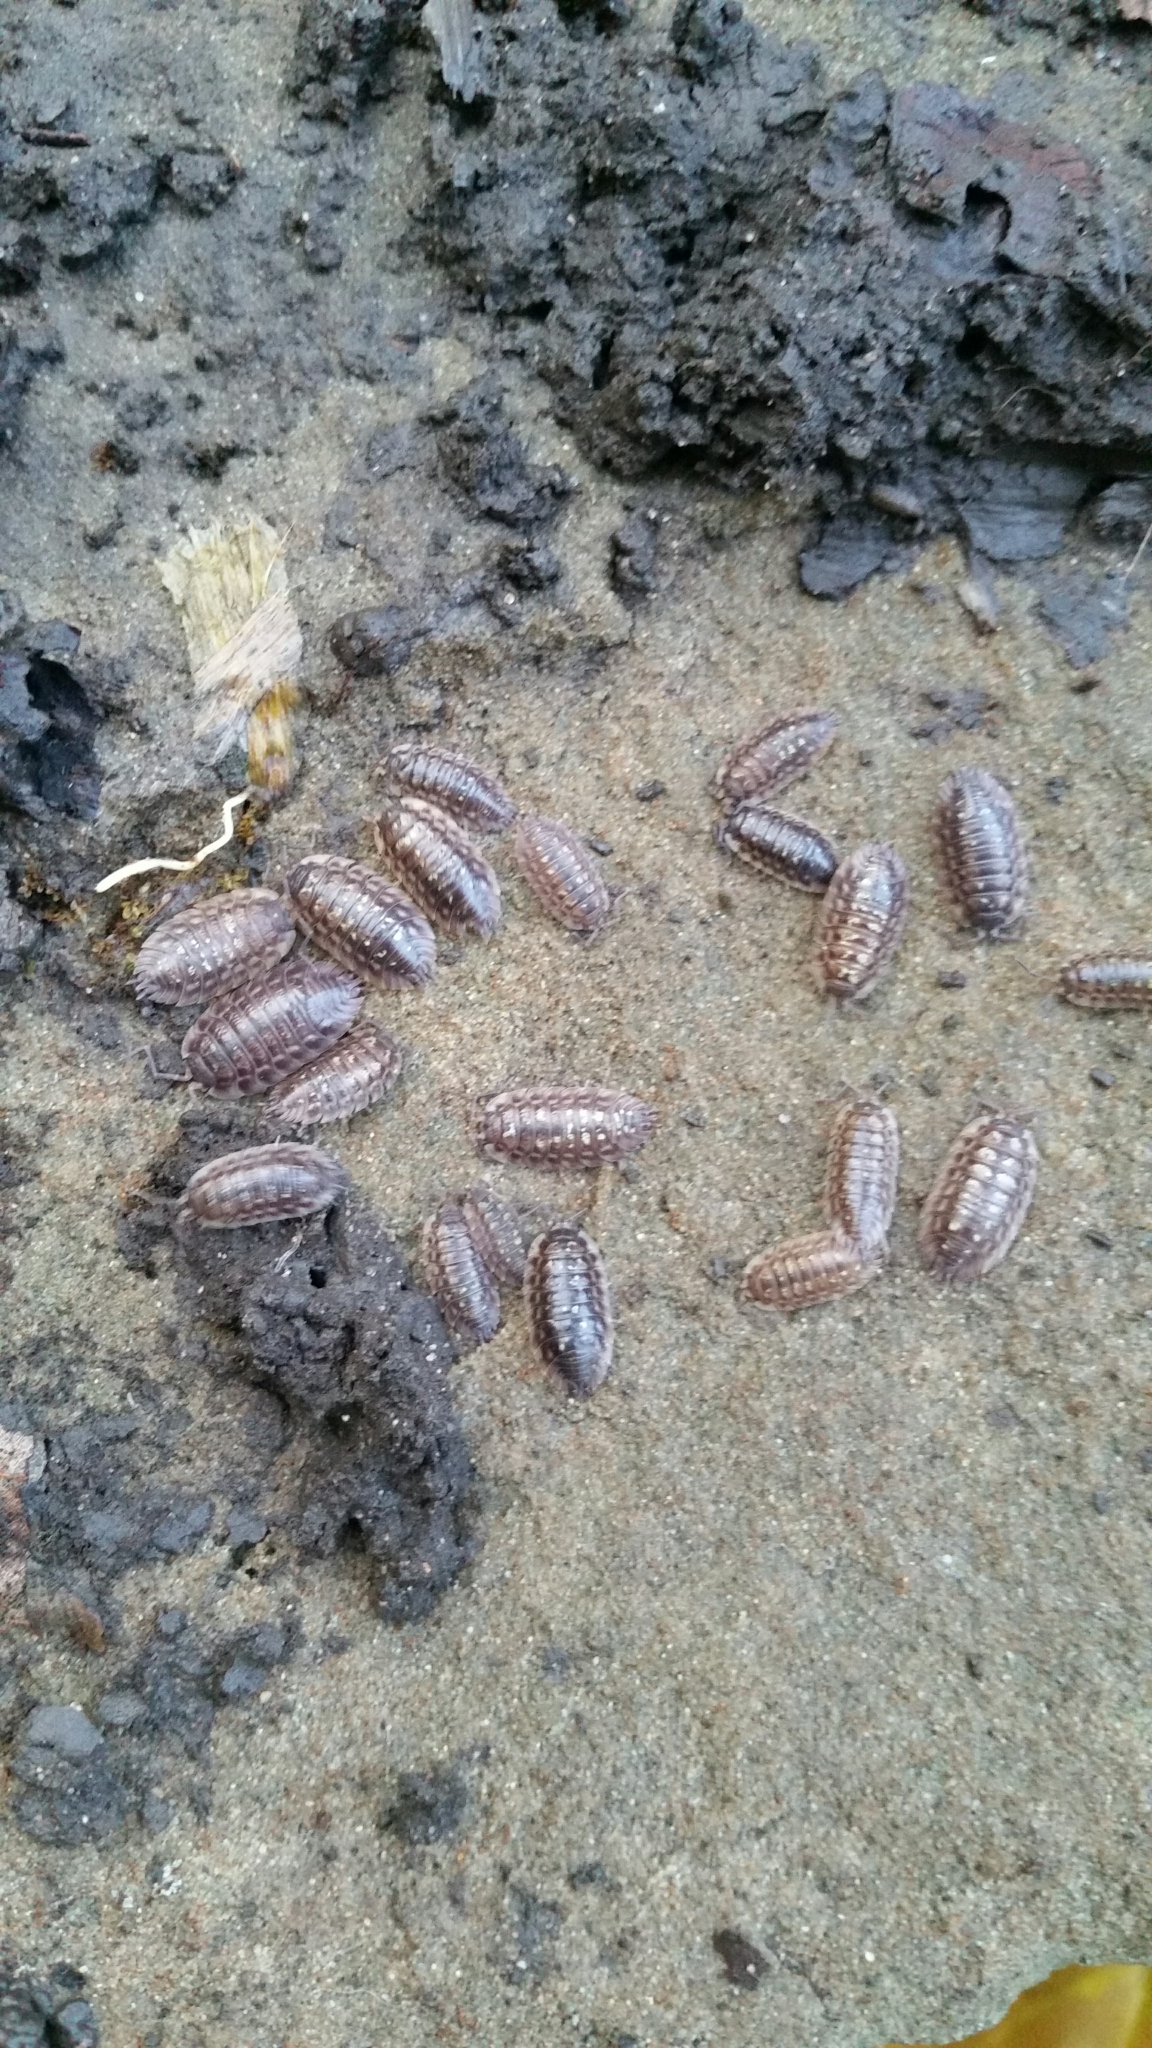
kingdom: Animalia
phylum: Arthropoda
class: Malacostraca
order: Isopoda
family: Oniscidae
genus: Oniscus
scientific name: Oniscus asellus
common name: Common shiny woodlouse
